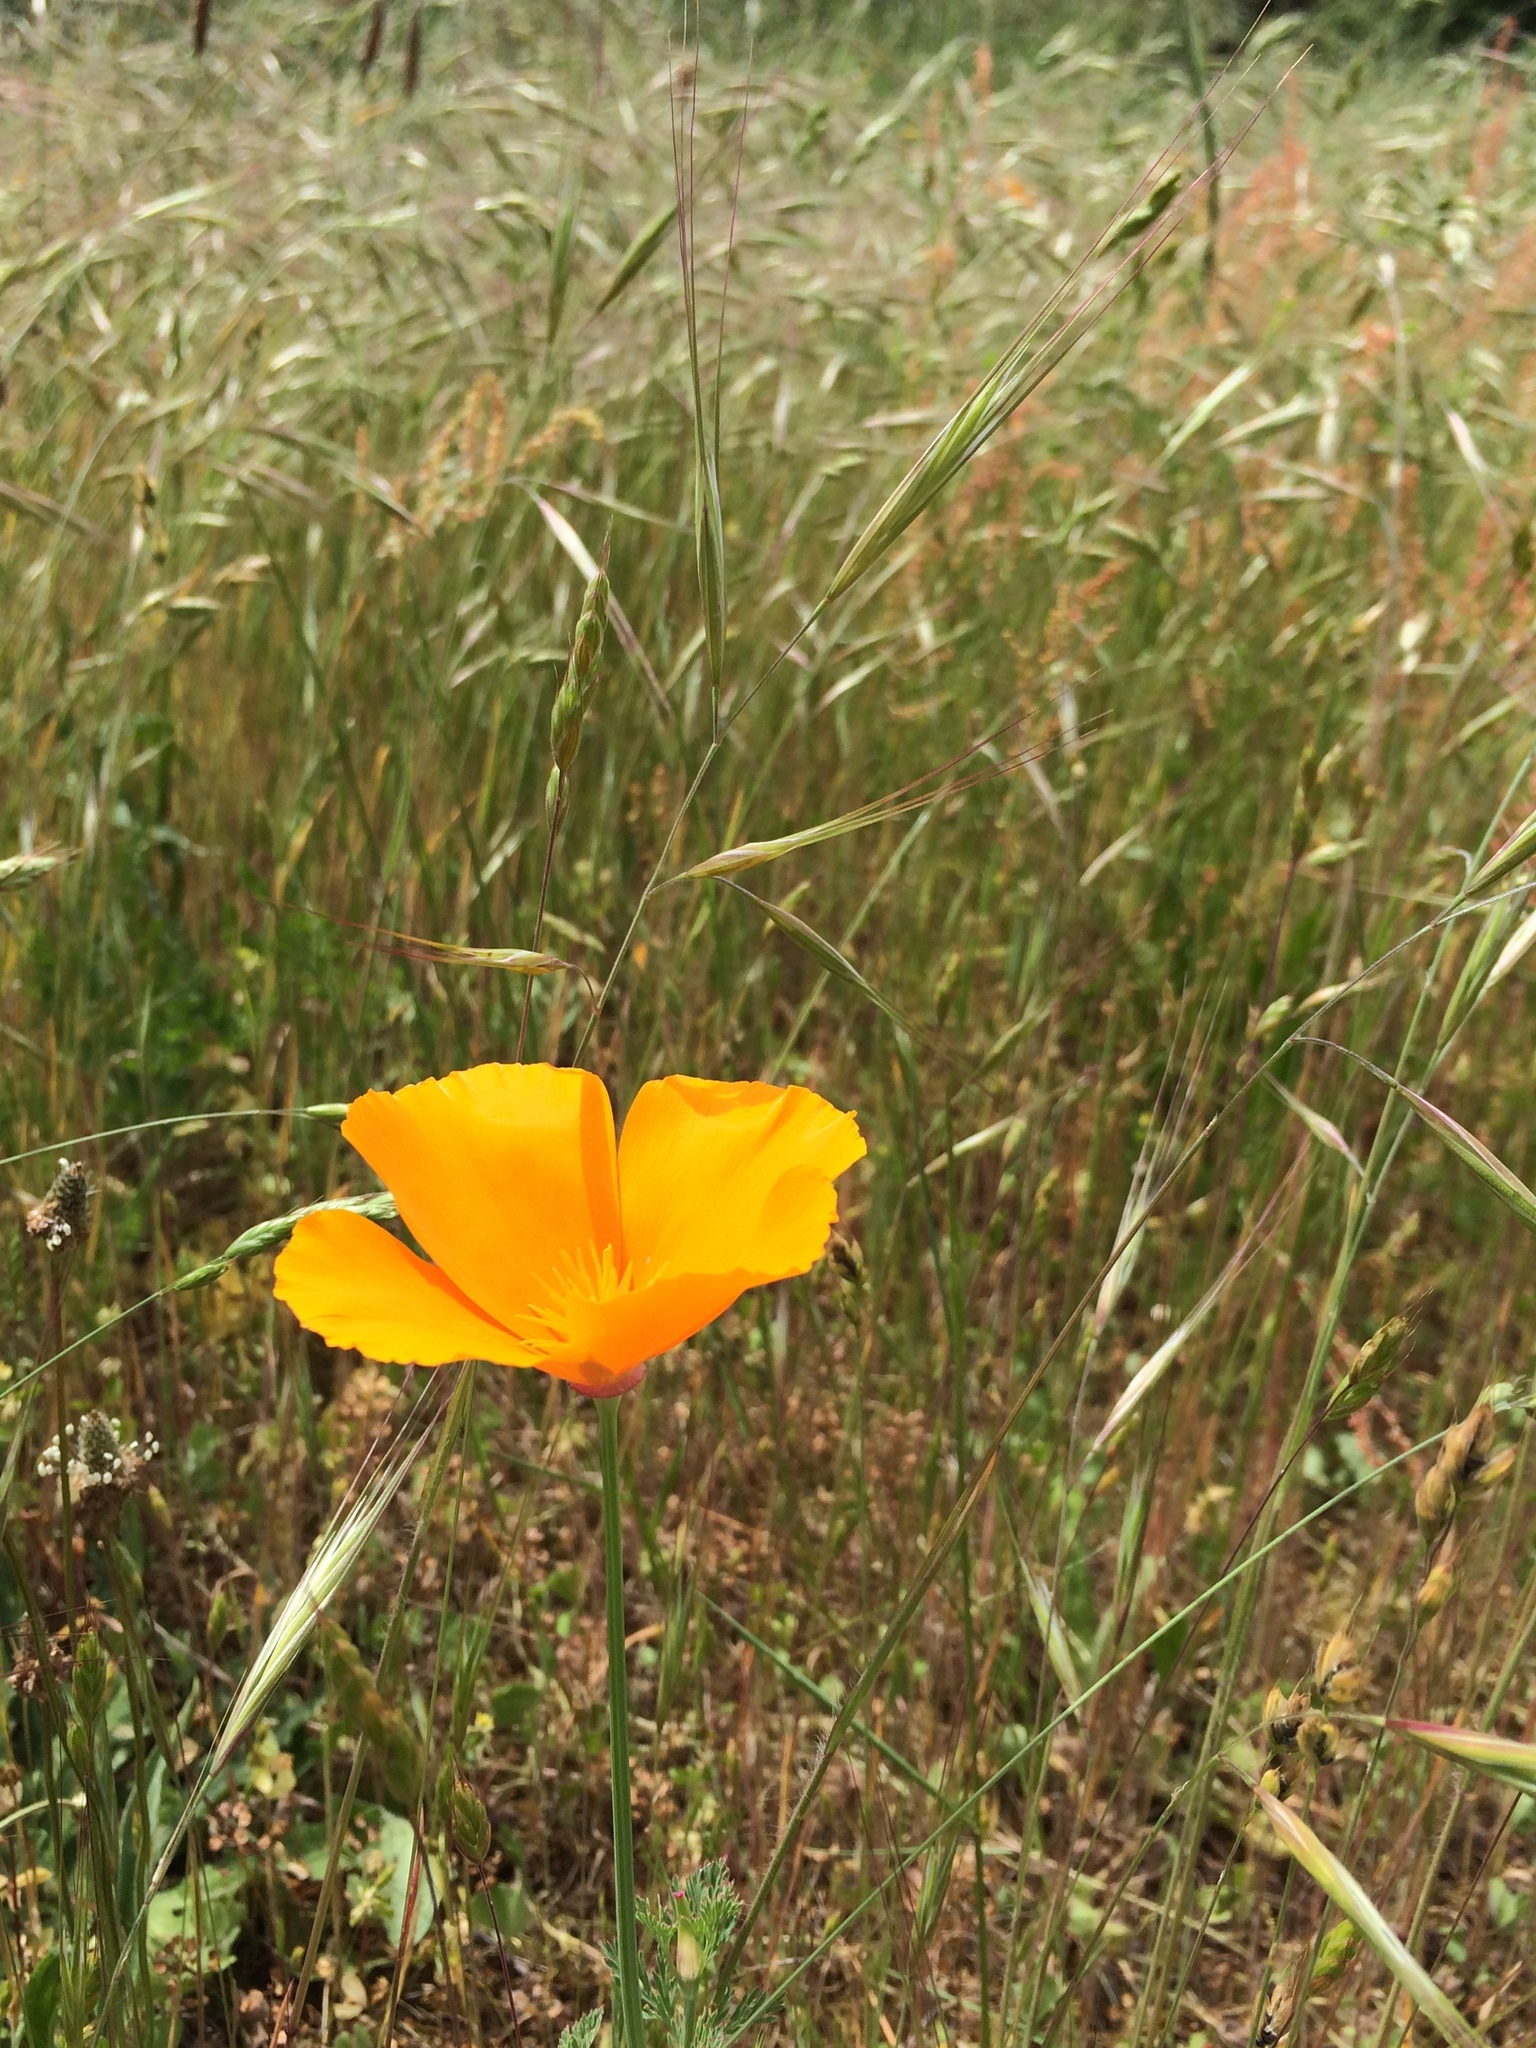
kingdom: Plantae
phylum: Tracheophyta
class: Magnoliopsida
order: Ranunculales
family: Papaveraceae
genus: Eschscholzia
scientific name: Eschscholzia californica
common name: California poppy
